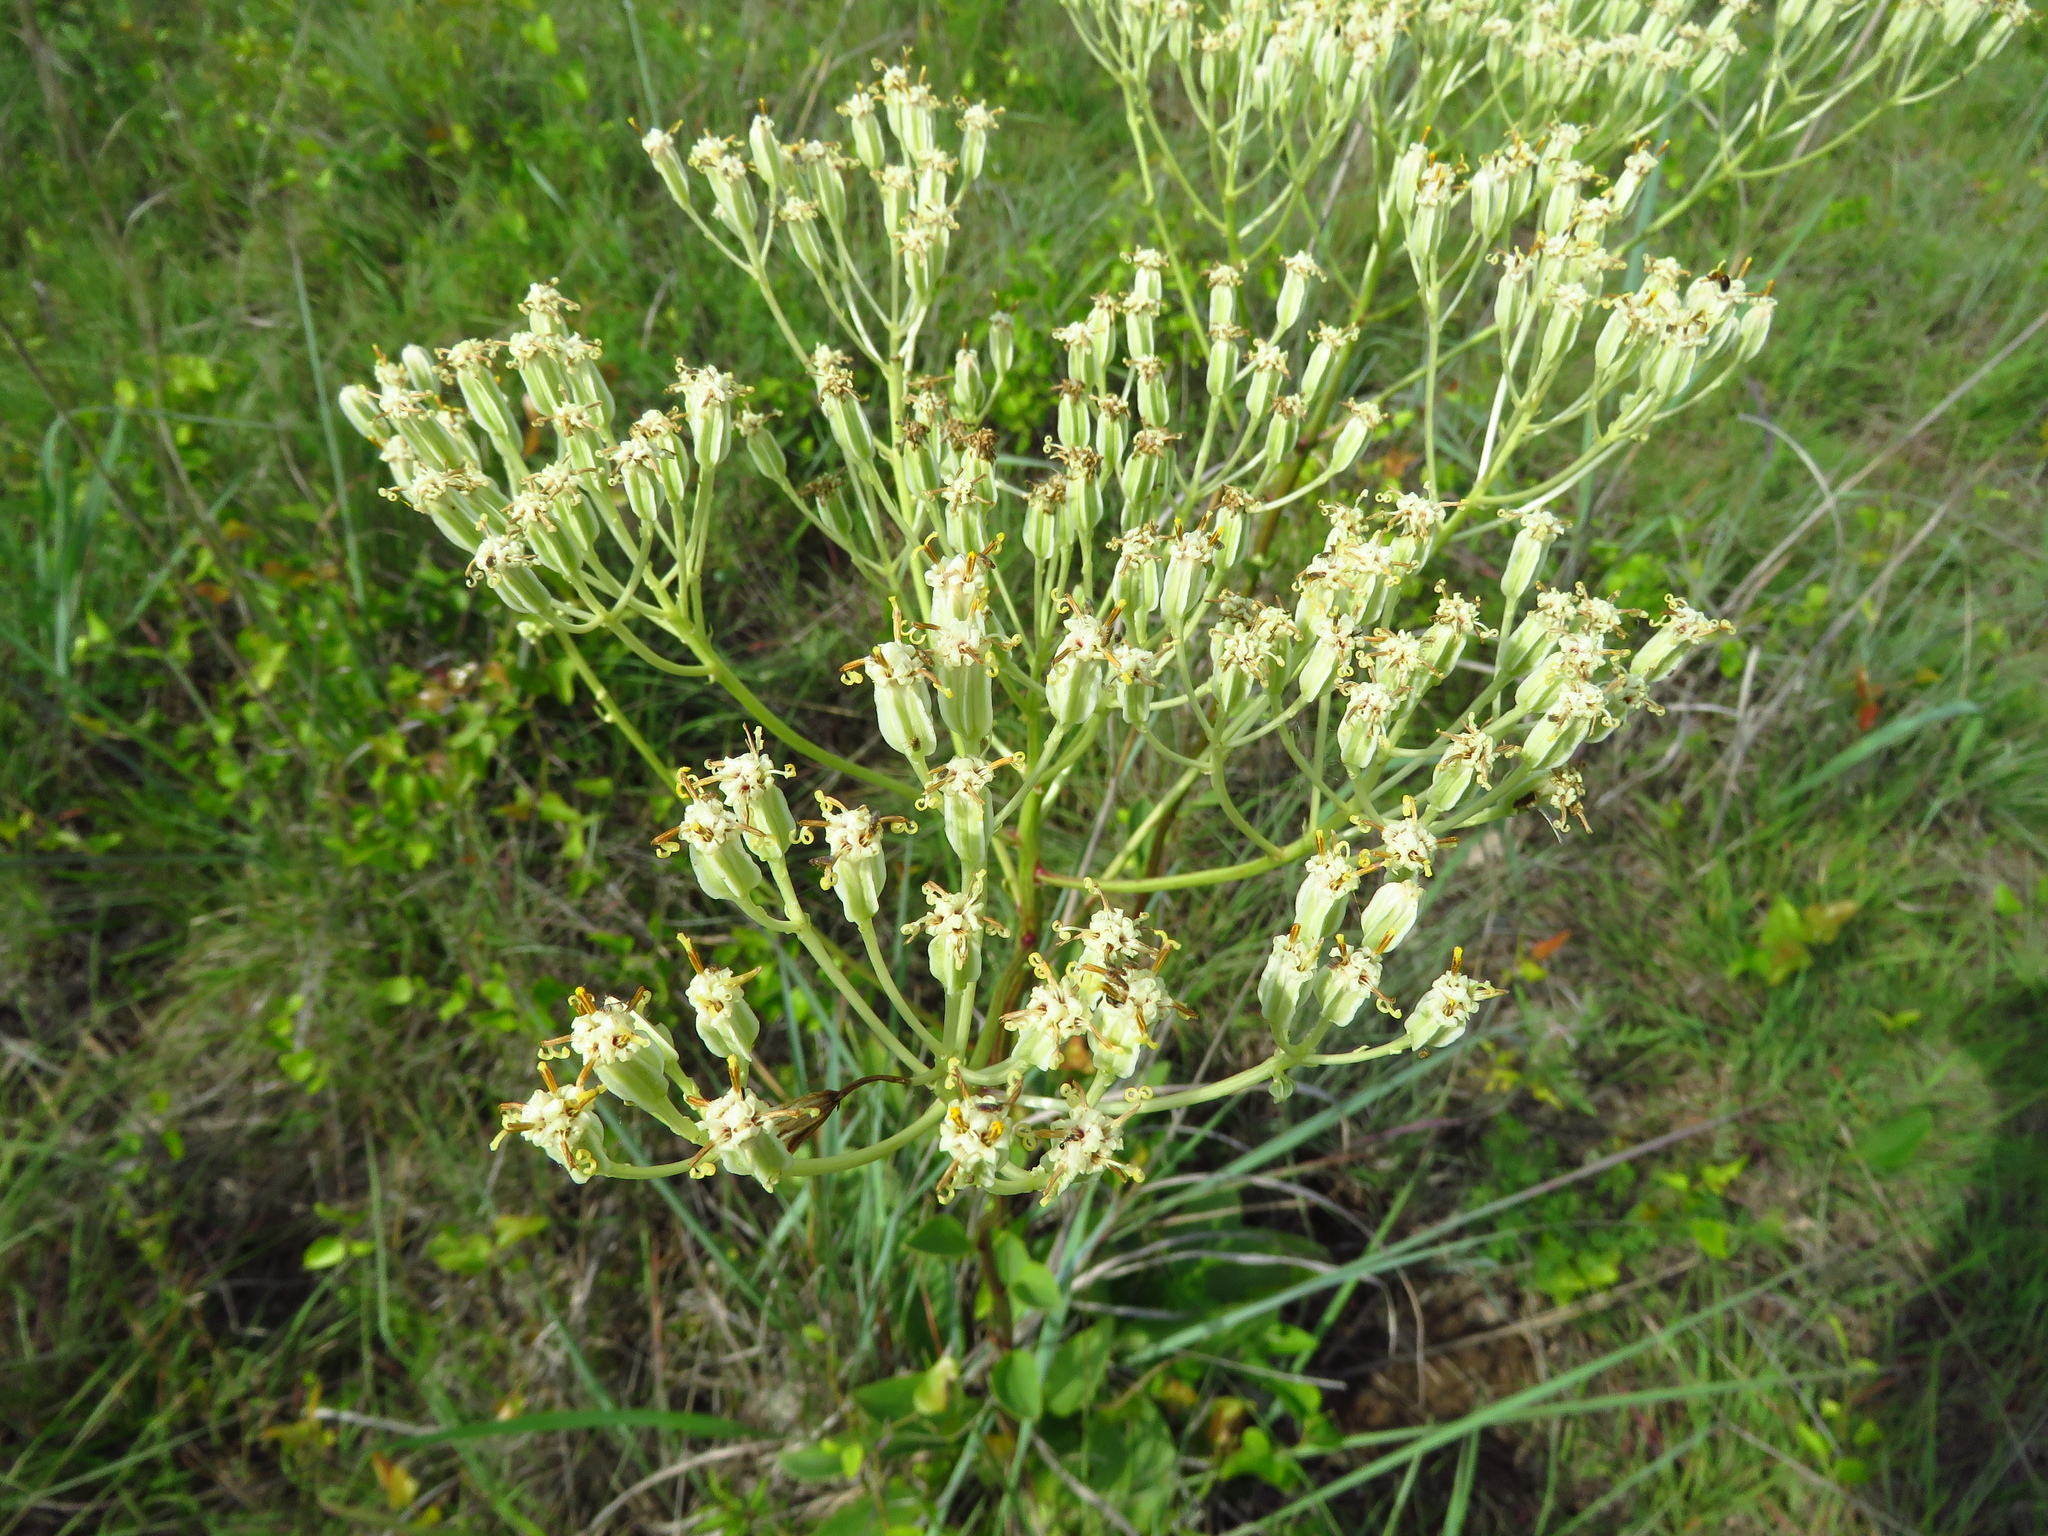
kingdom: Plantae
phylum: Tracheophyta
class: Magnoliopsida
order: Asterales
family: Asteraceae
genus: Arnoglossum
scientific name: Arnoglossum plantagineum
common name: Groove-stemmed indian-plantain
